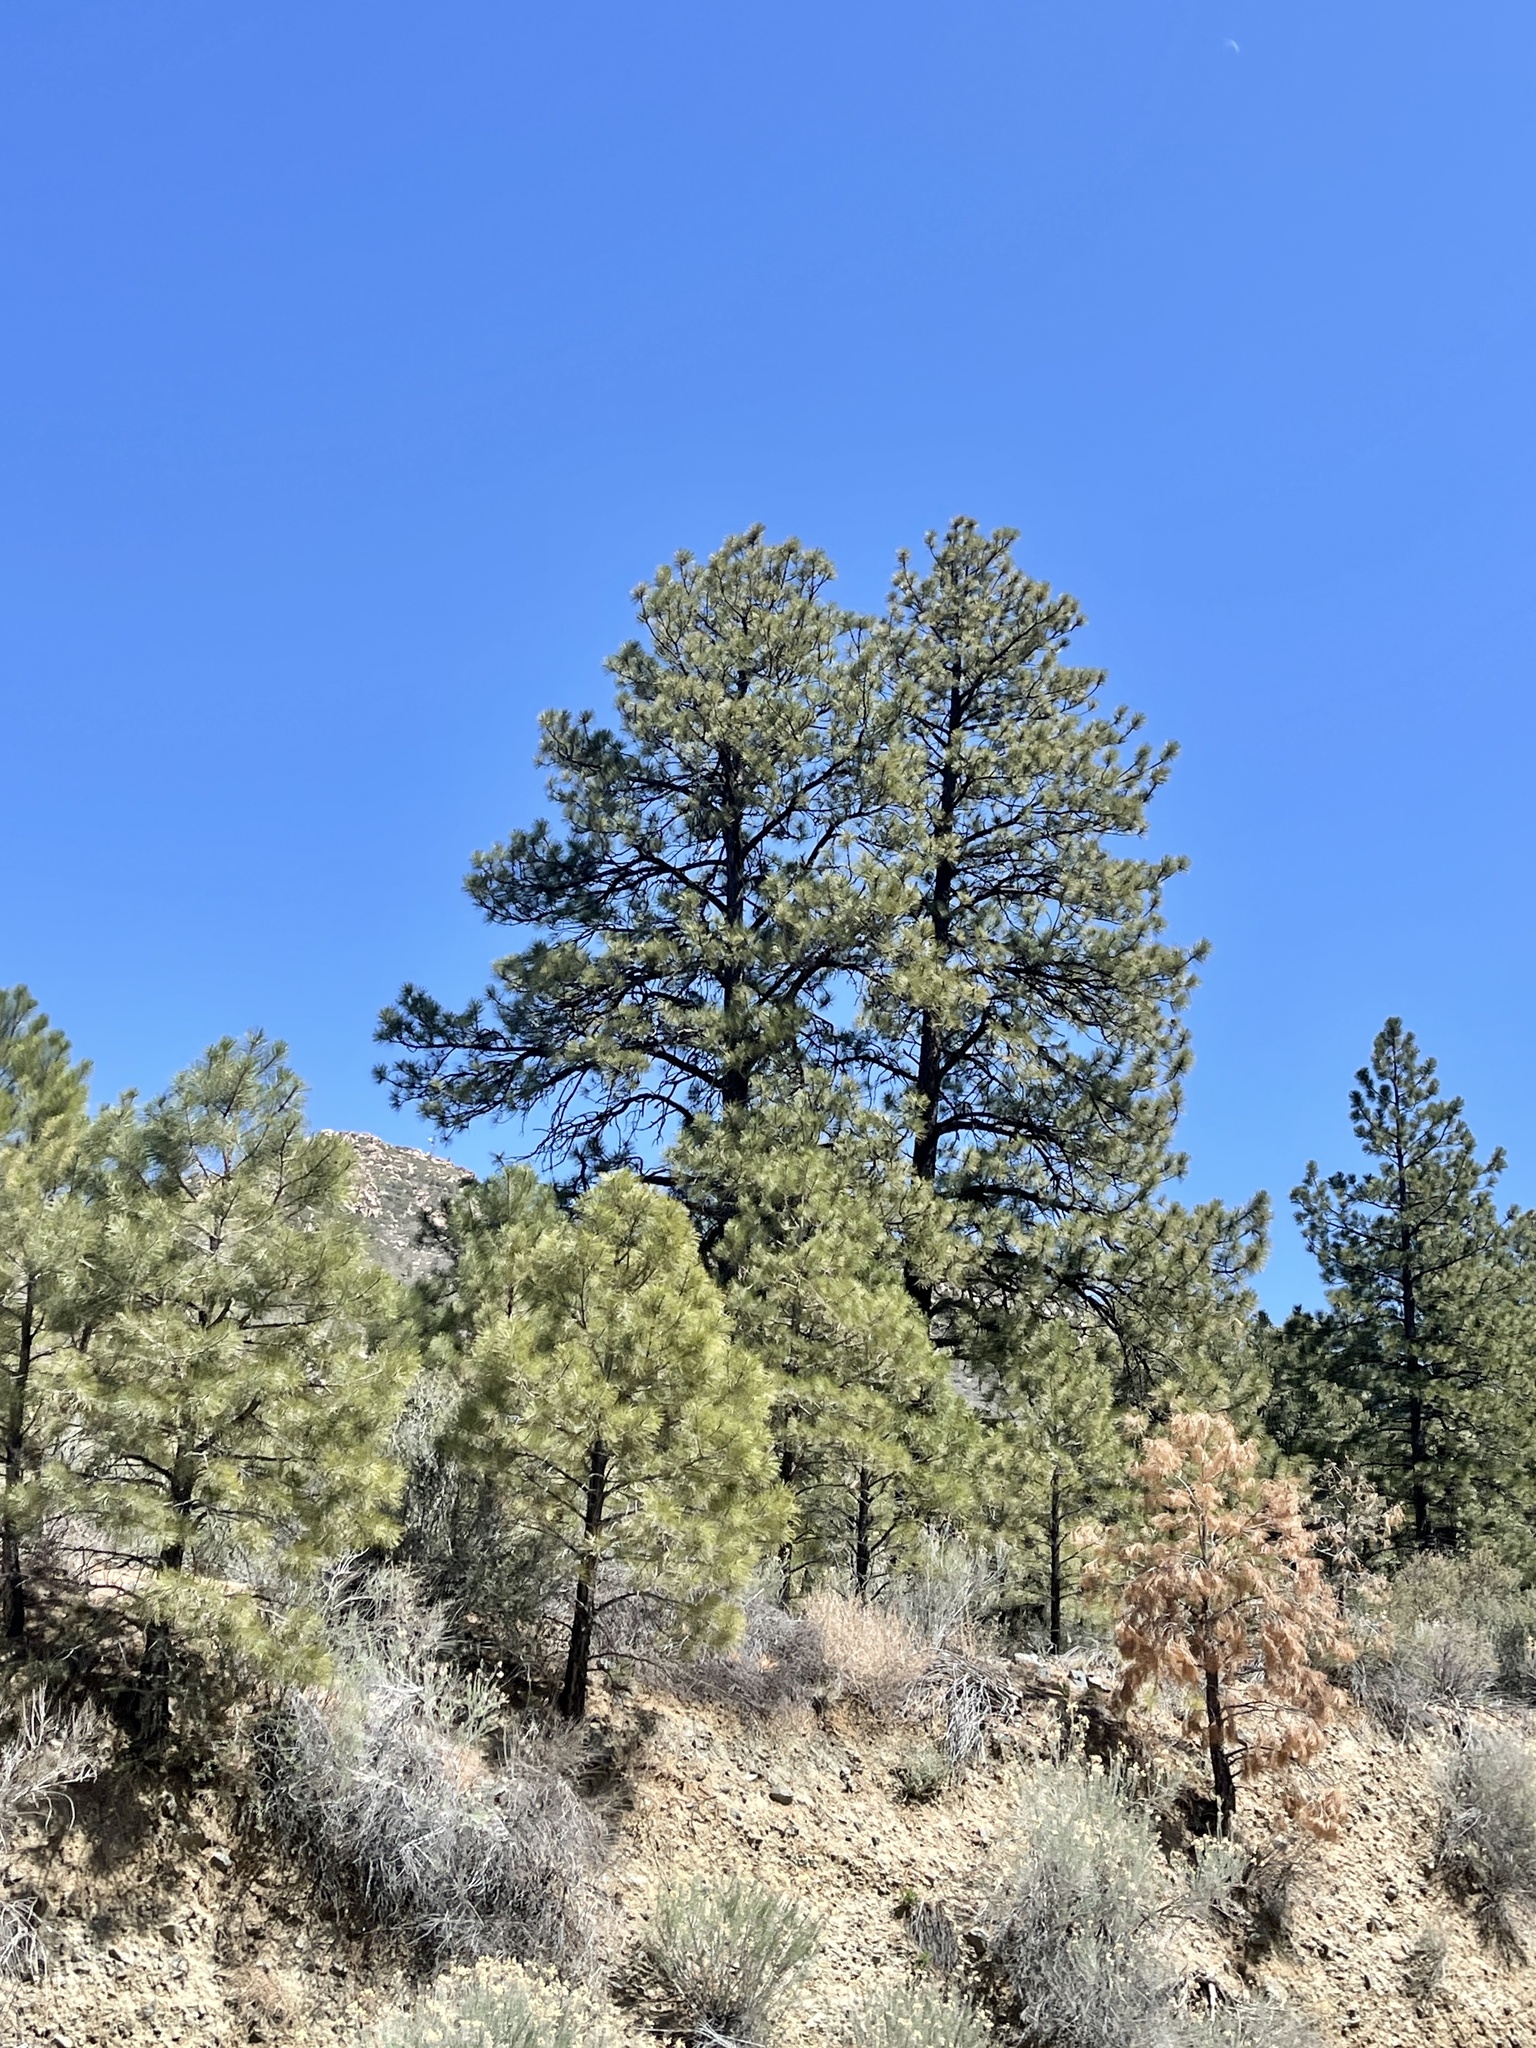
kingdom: Plantae
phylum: Tracheophyta
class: Pinopsida
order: Pinales
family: Pinaceae
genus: Pinus
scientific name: Pinus ponderosa
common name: Western yellow-pine
